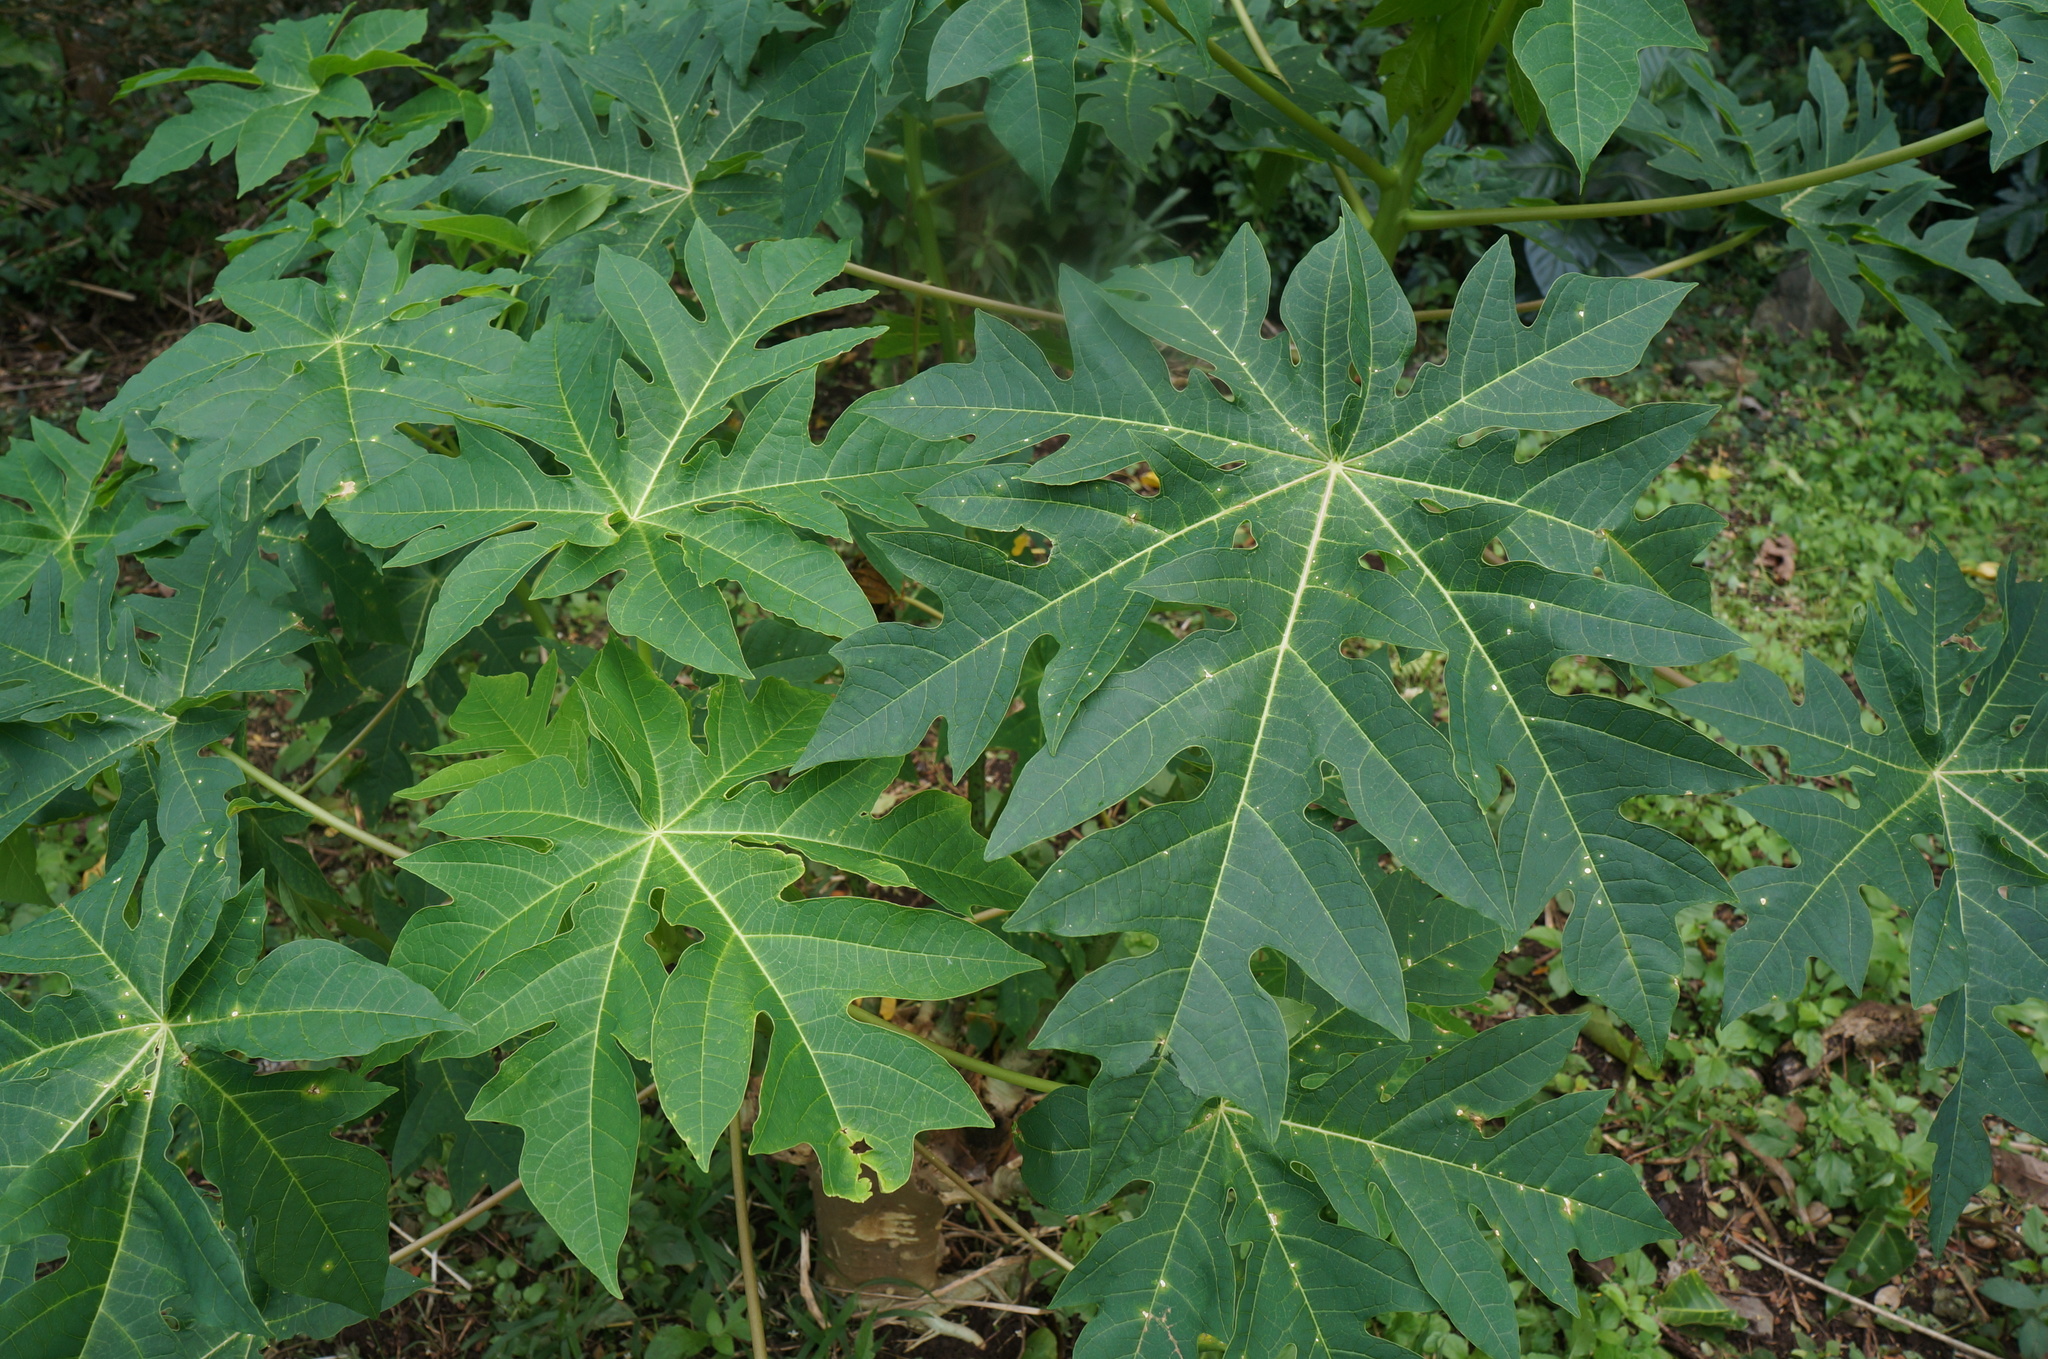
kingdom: Plantae
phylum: Tracheophyta
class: Magnoliopsida
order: Brassicales
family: Caricaceae
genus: Carica
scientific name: Carica papaya
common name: Papaya
